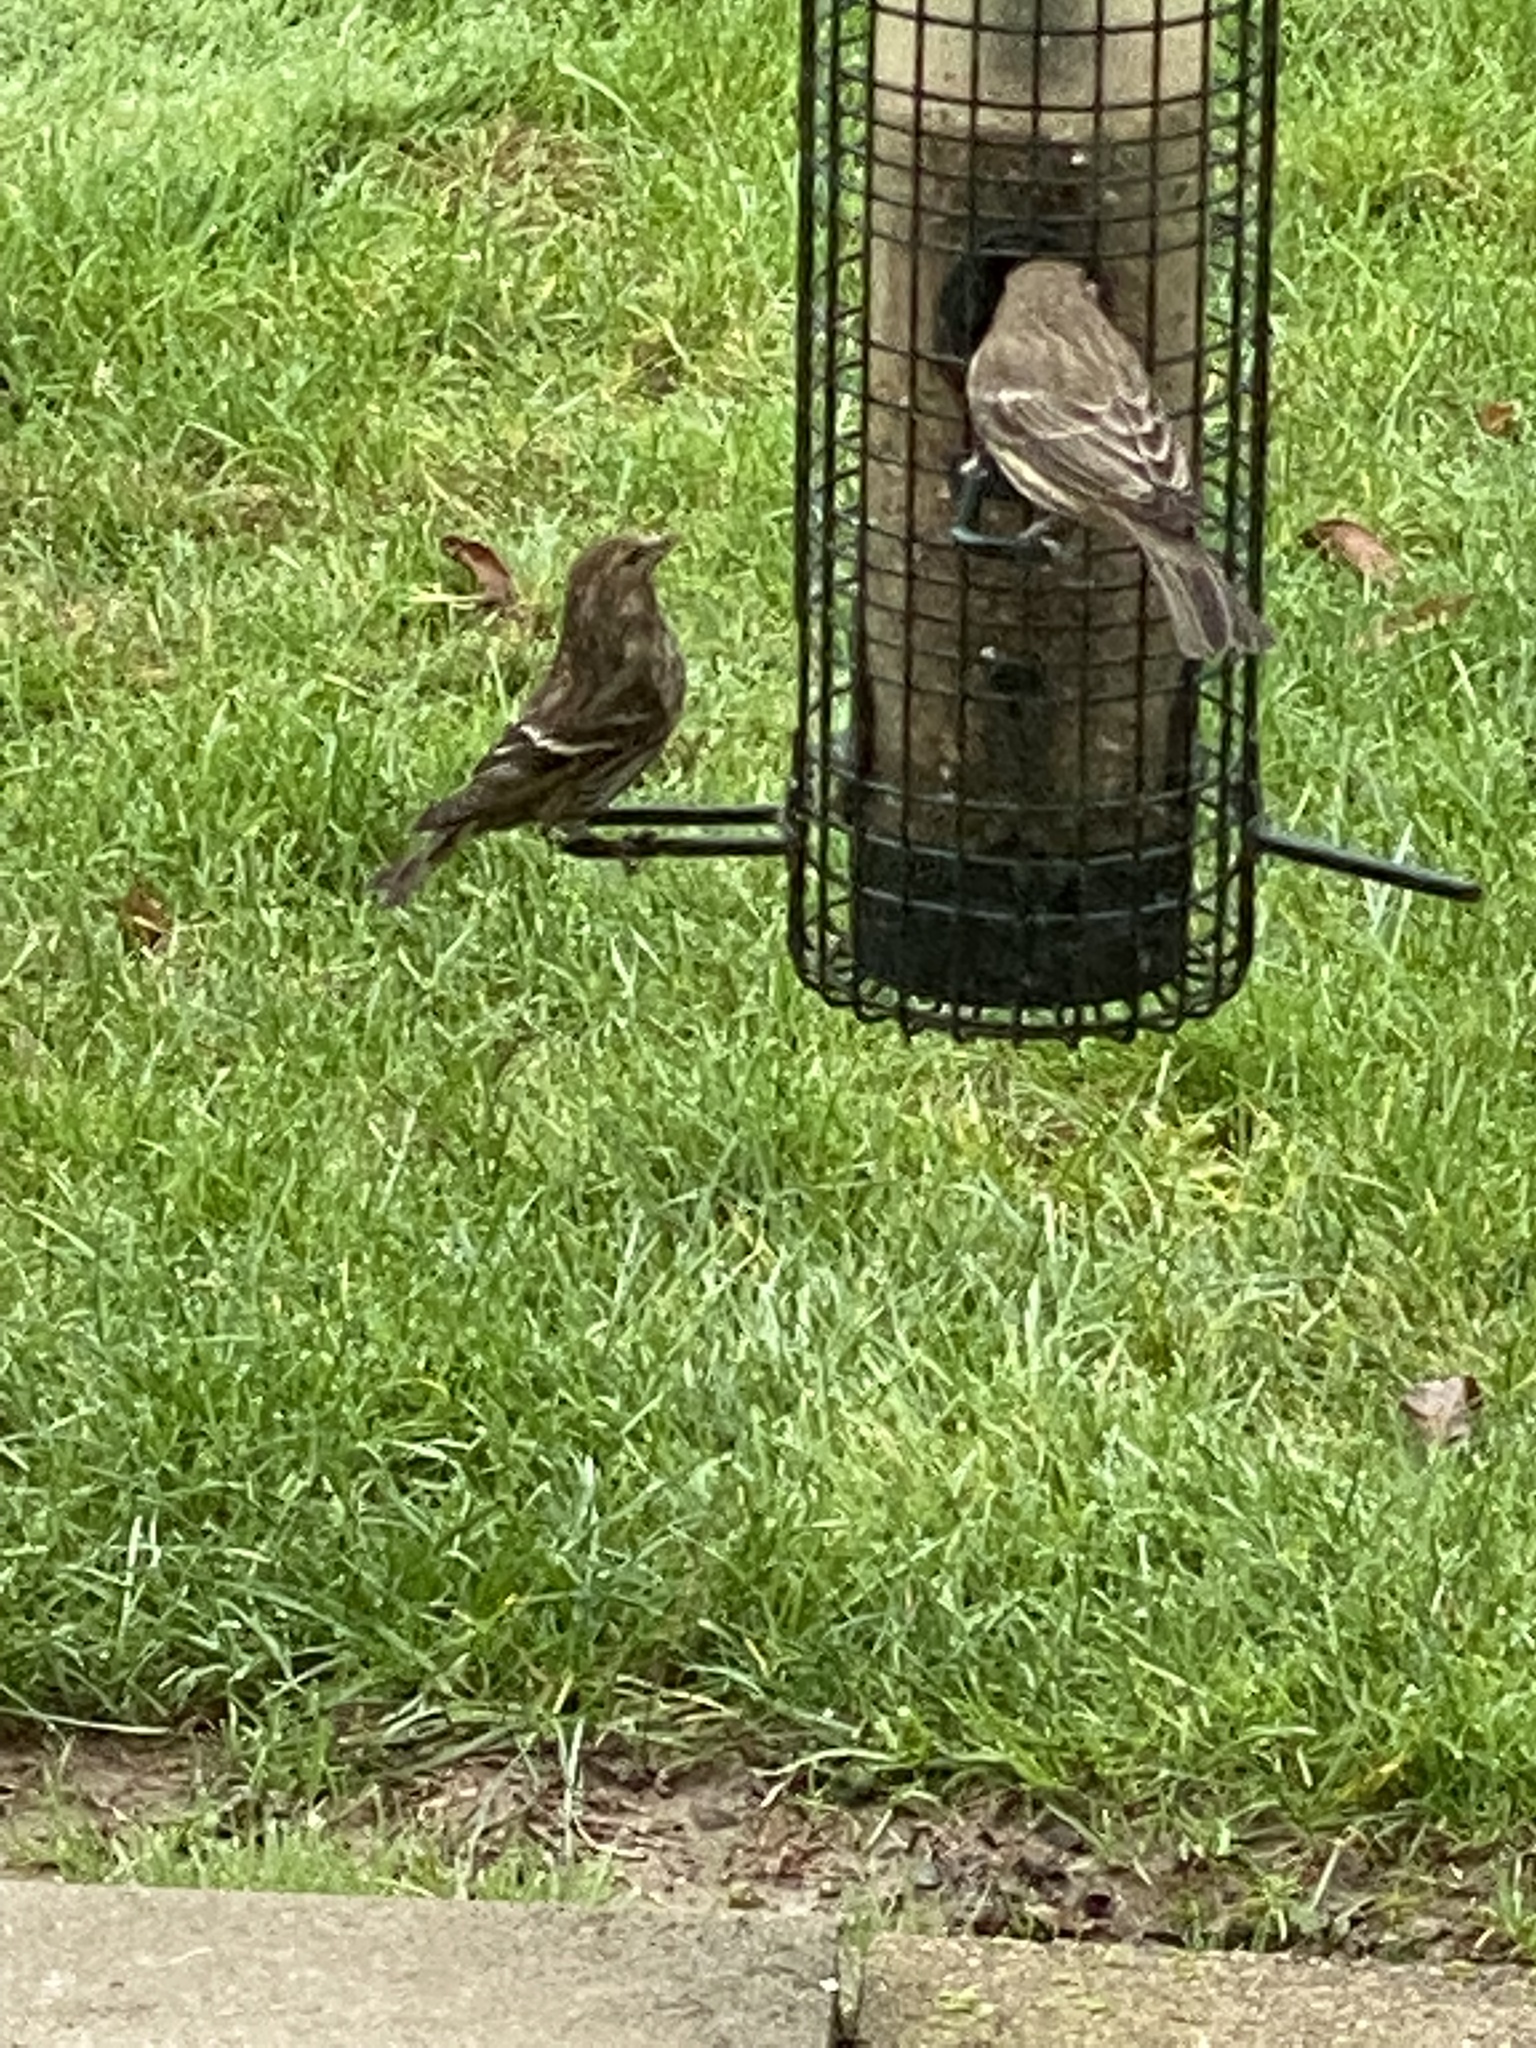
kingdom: Animalia
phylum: Chordata
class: Aves
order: Passeriformes
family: Fringillidae
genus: Spinus
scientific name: Spinus pinus
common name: Pine siskin
